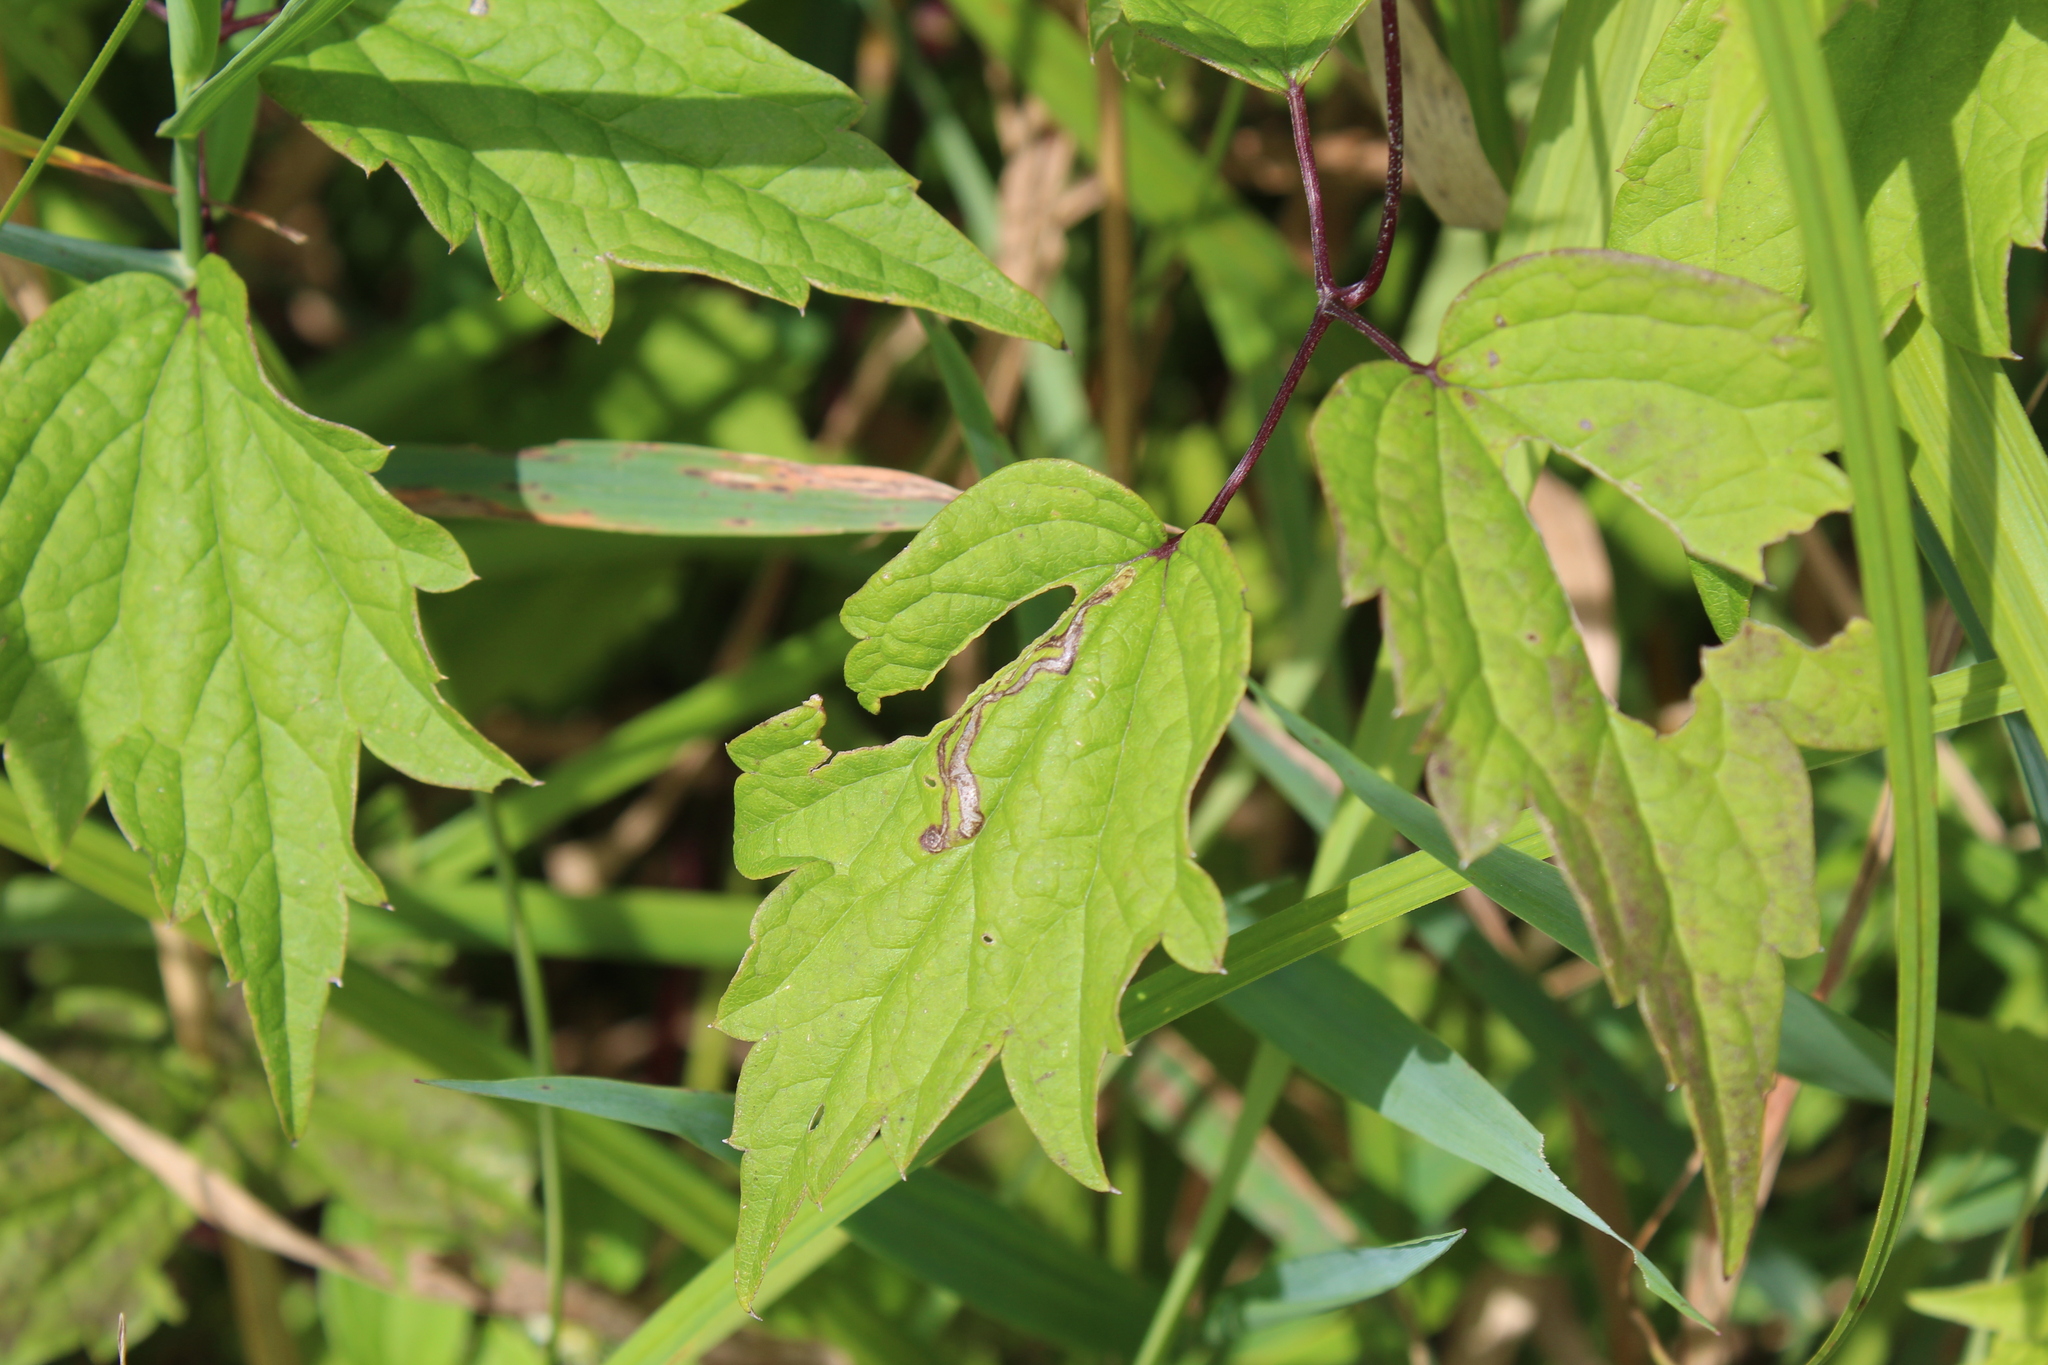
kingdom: Animalia
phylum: Arthropoda
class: Insecta
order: Diptera
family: Agromyzidae
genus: Phytomyza
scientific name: Phytomyza loewii
